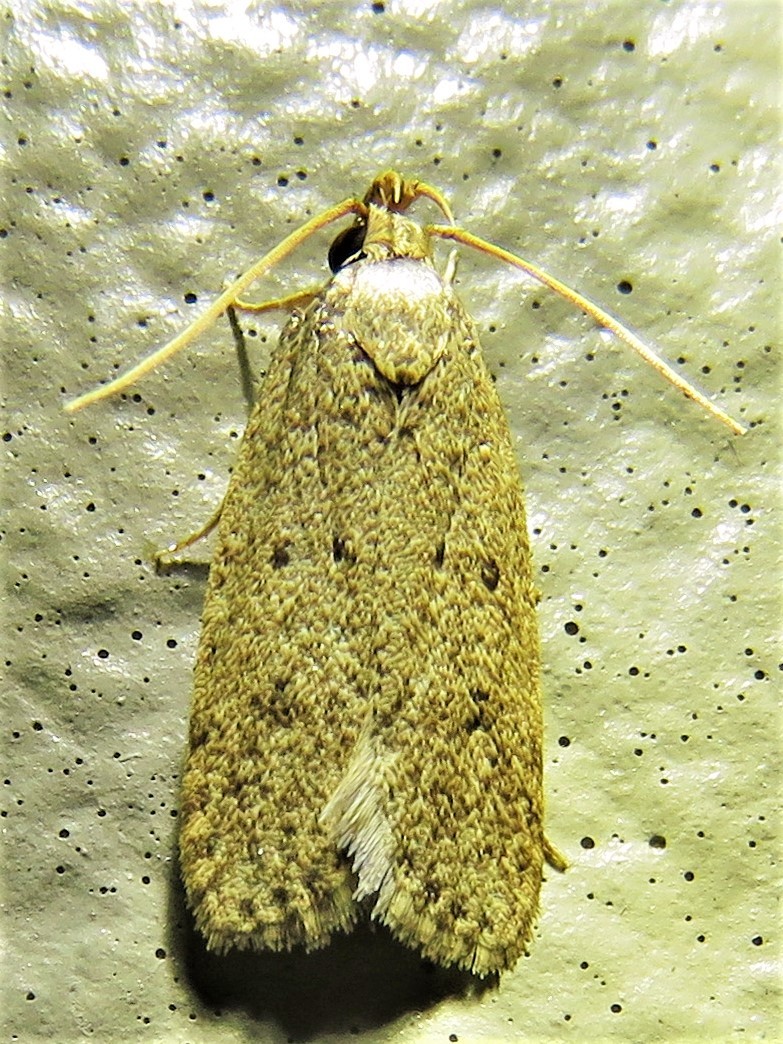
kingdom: Animalia
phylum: Arthropoda
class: Insecta
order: Lepidoptera
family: Autostichidae
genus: Autosticha
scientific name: Autosticha kyotensis
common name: Kyoto moth
